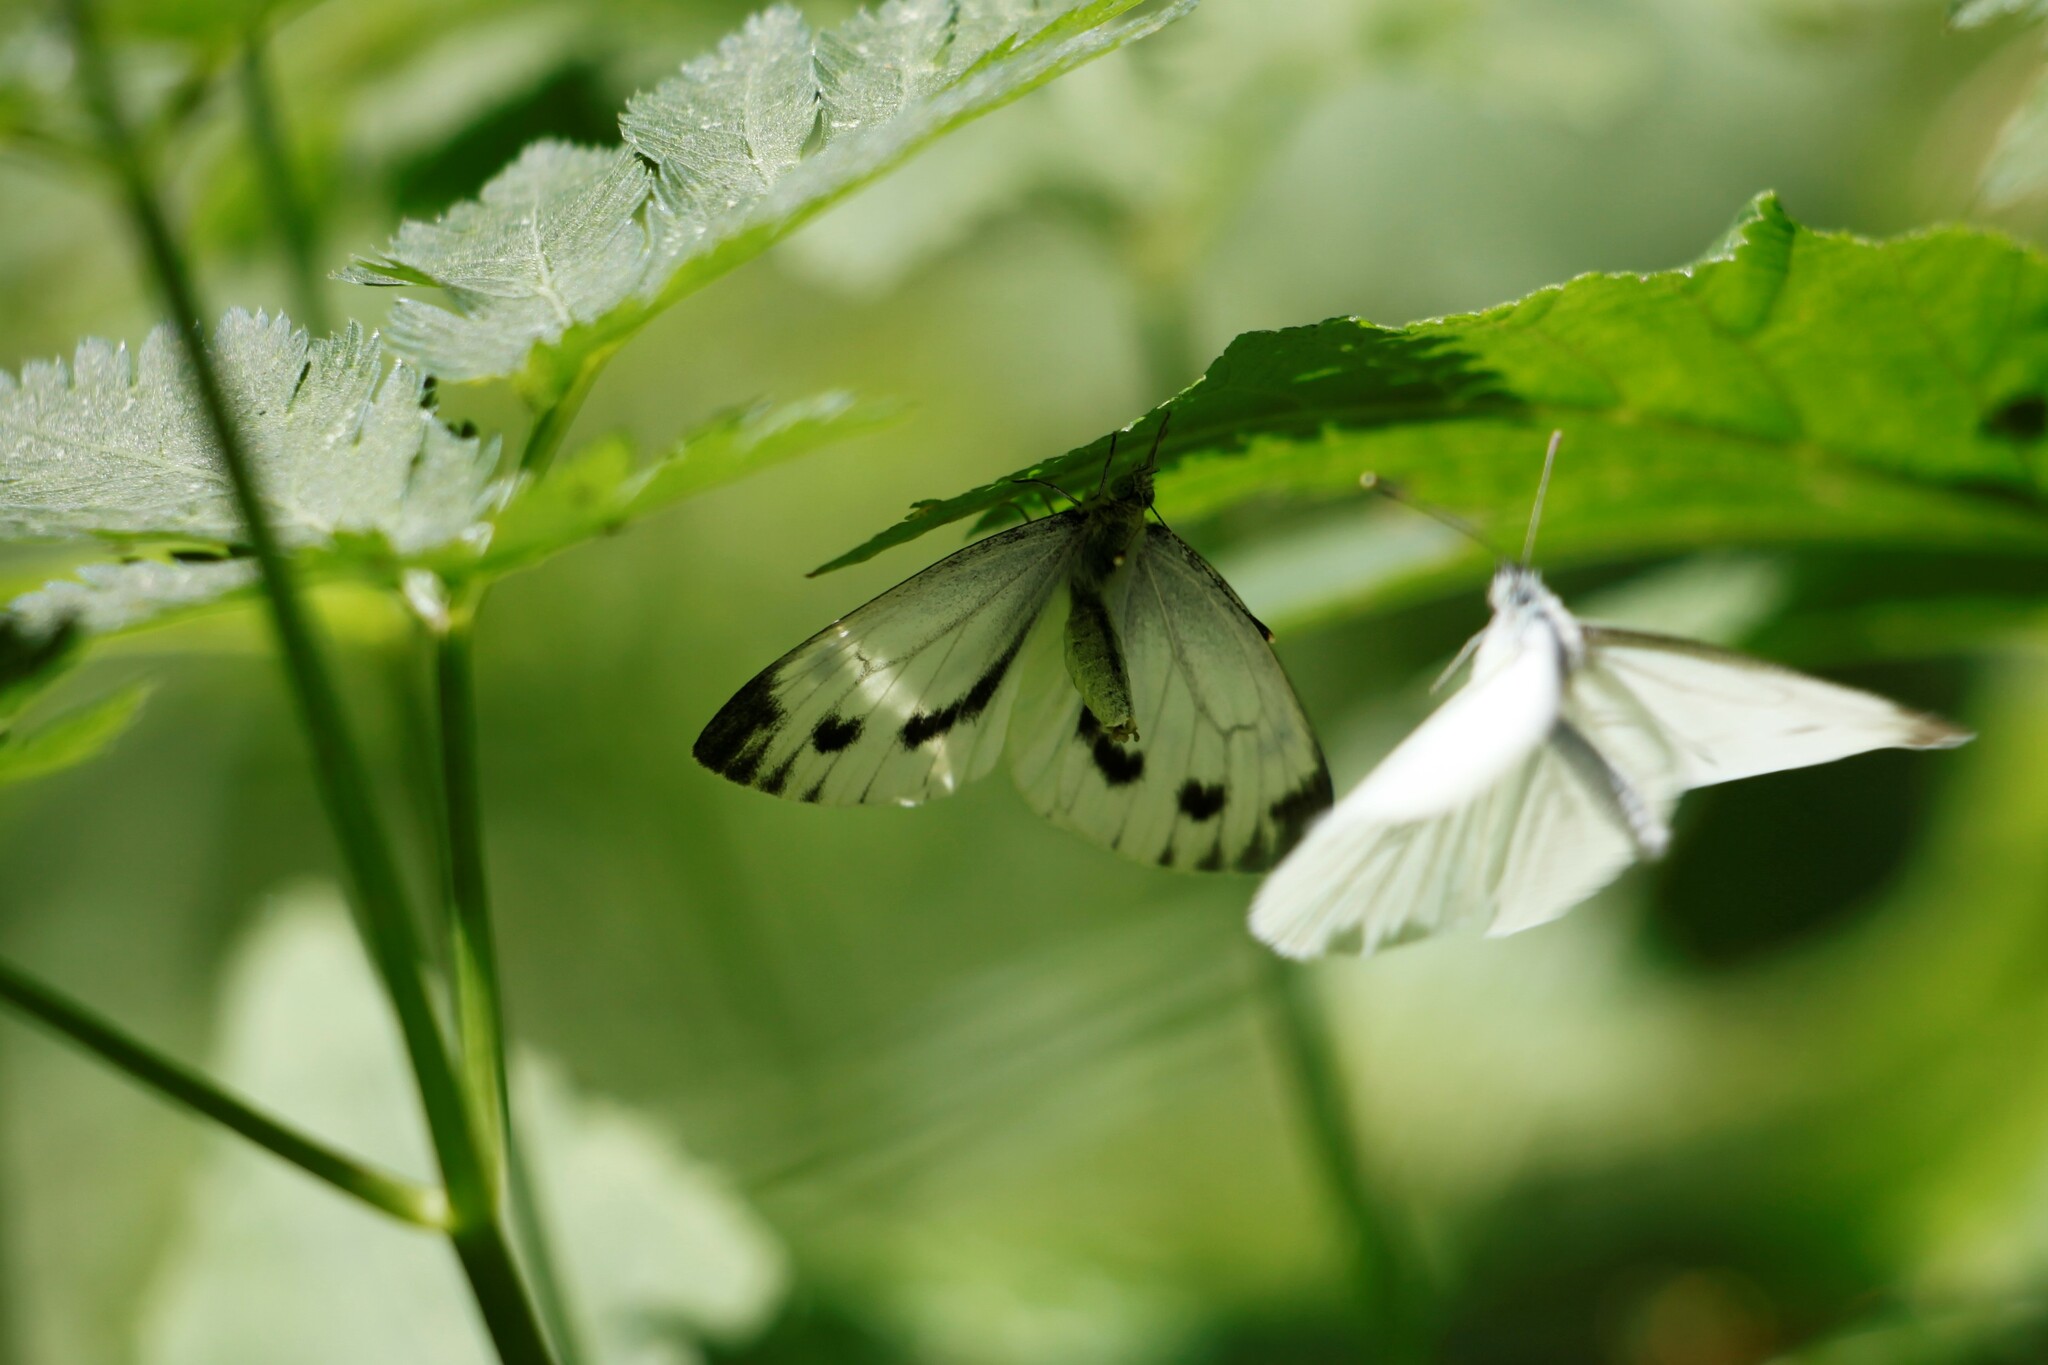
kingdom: Animalia
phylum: Arthropoda
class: Insecta
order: Lepidoptera
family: Pieridae
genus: Pieris
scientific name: Pieris napi
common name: Green-veined white
